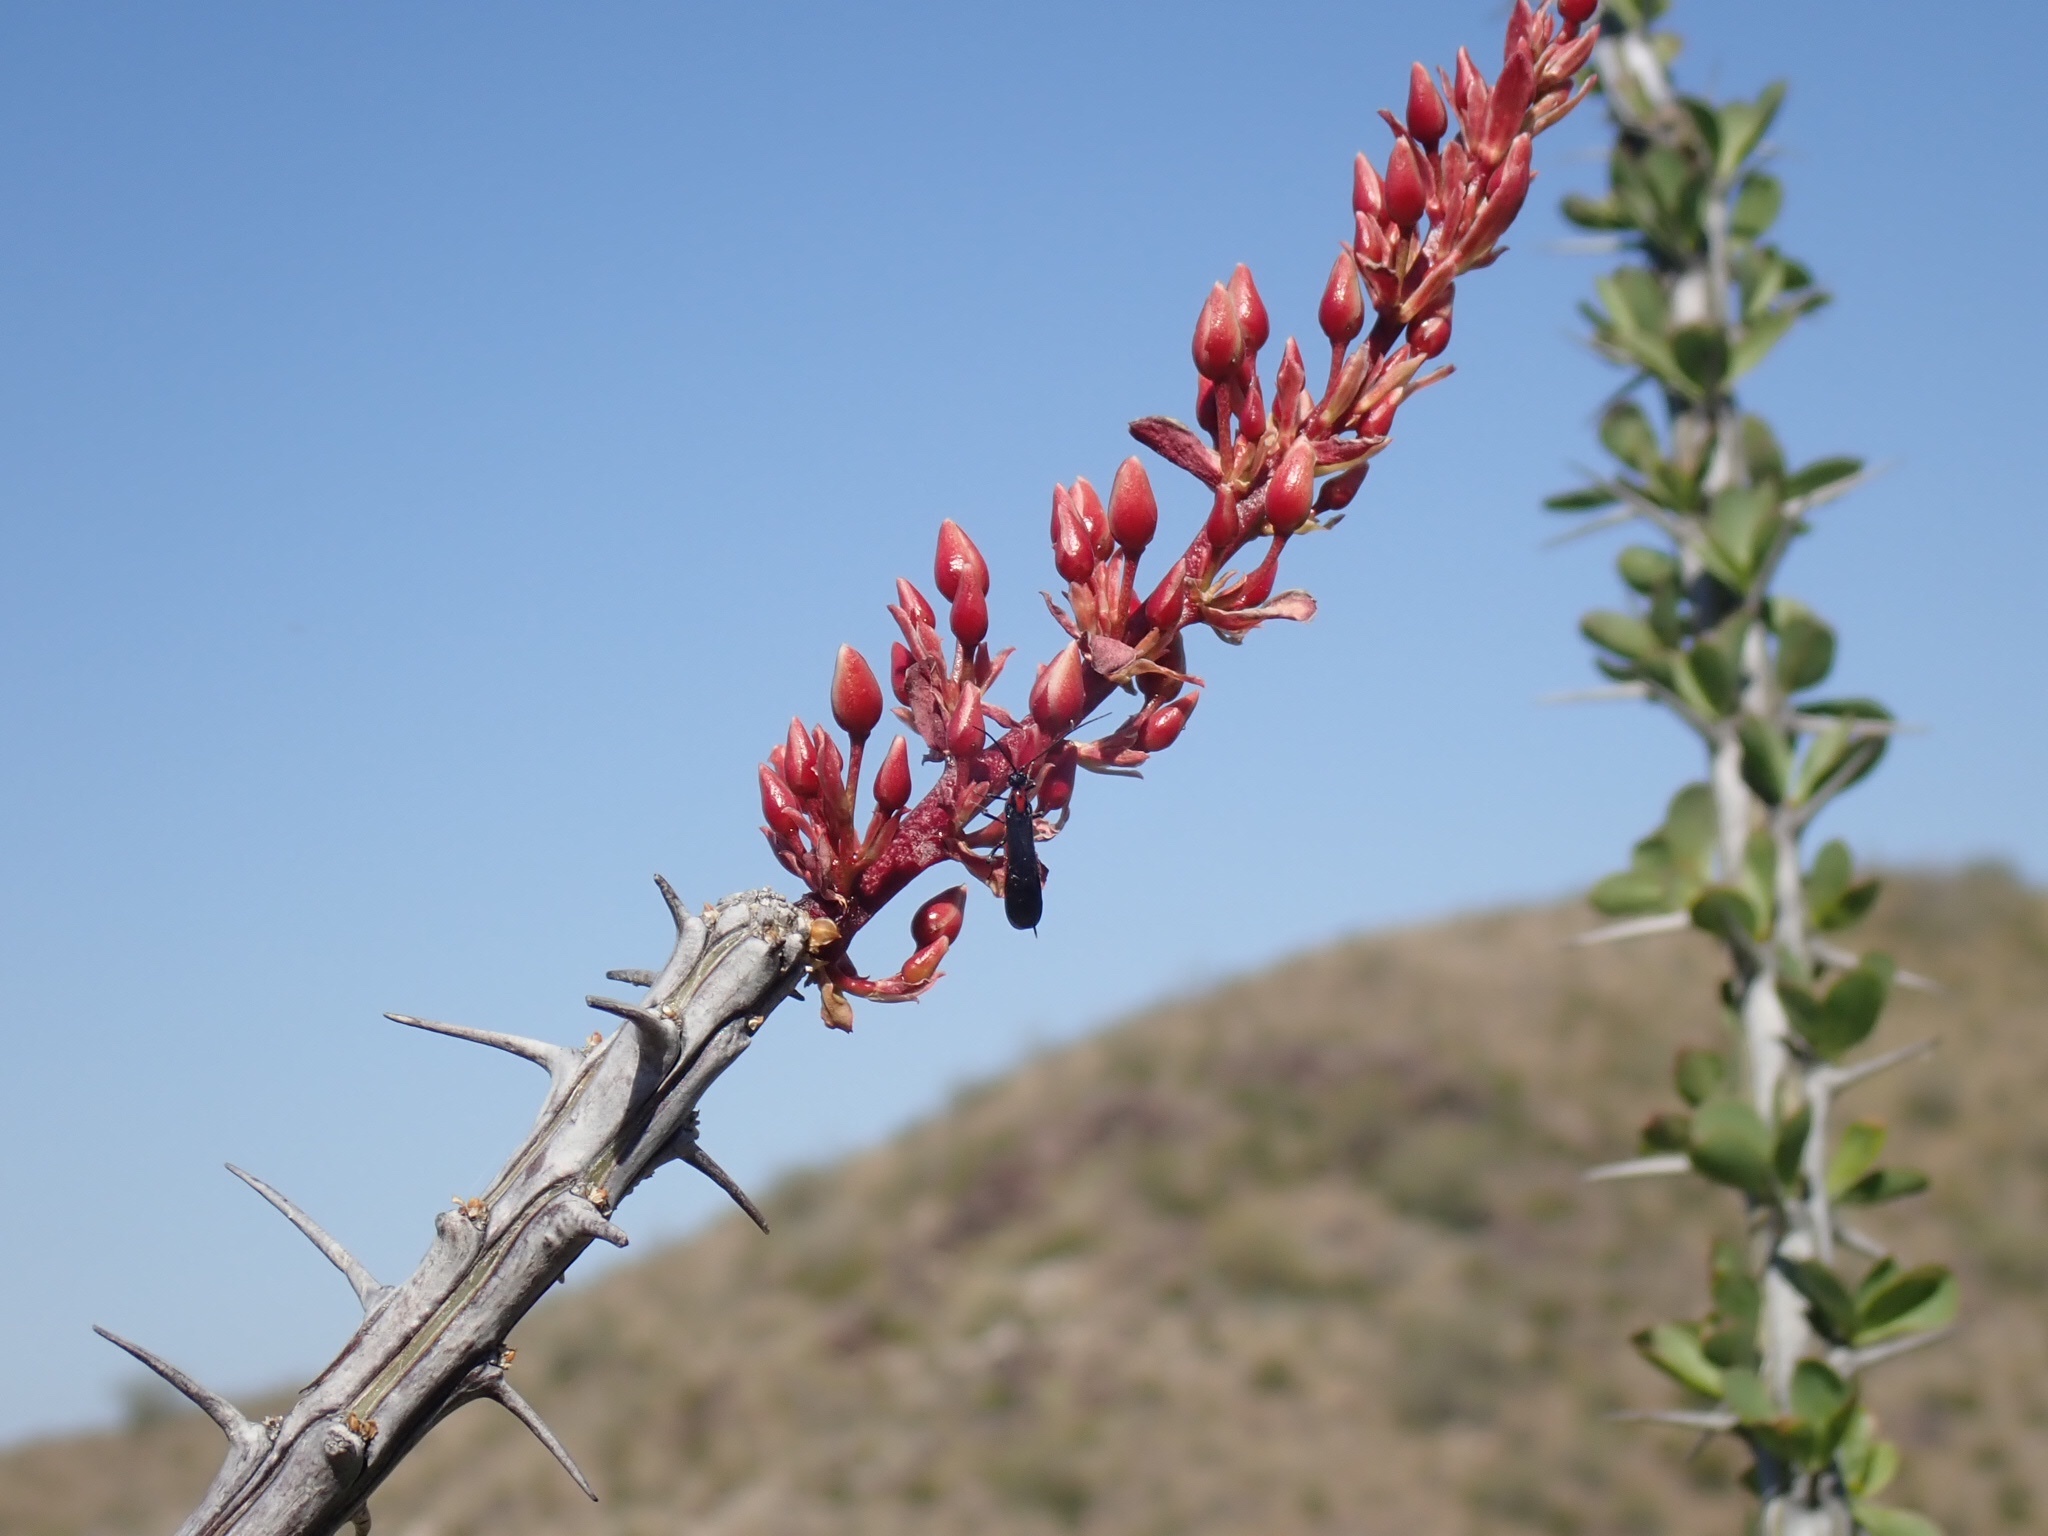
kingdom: Plantae
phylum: Tracheophyta
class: Magnoliopsida
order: Ericales
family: Fouquieriaceae
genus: Fouquieria
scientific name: Fouquieria splendens
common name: Vine-cactus
